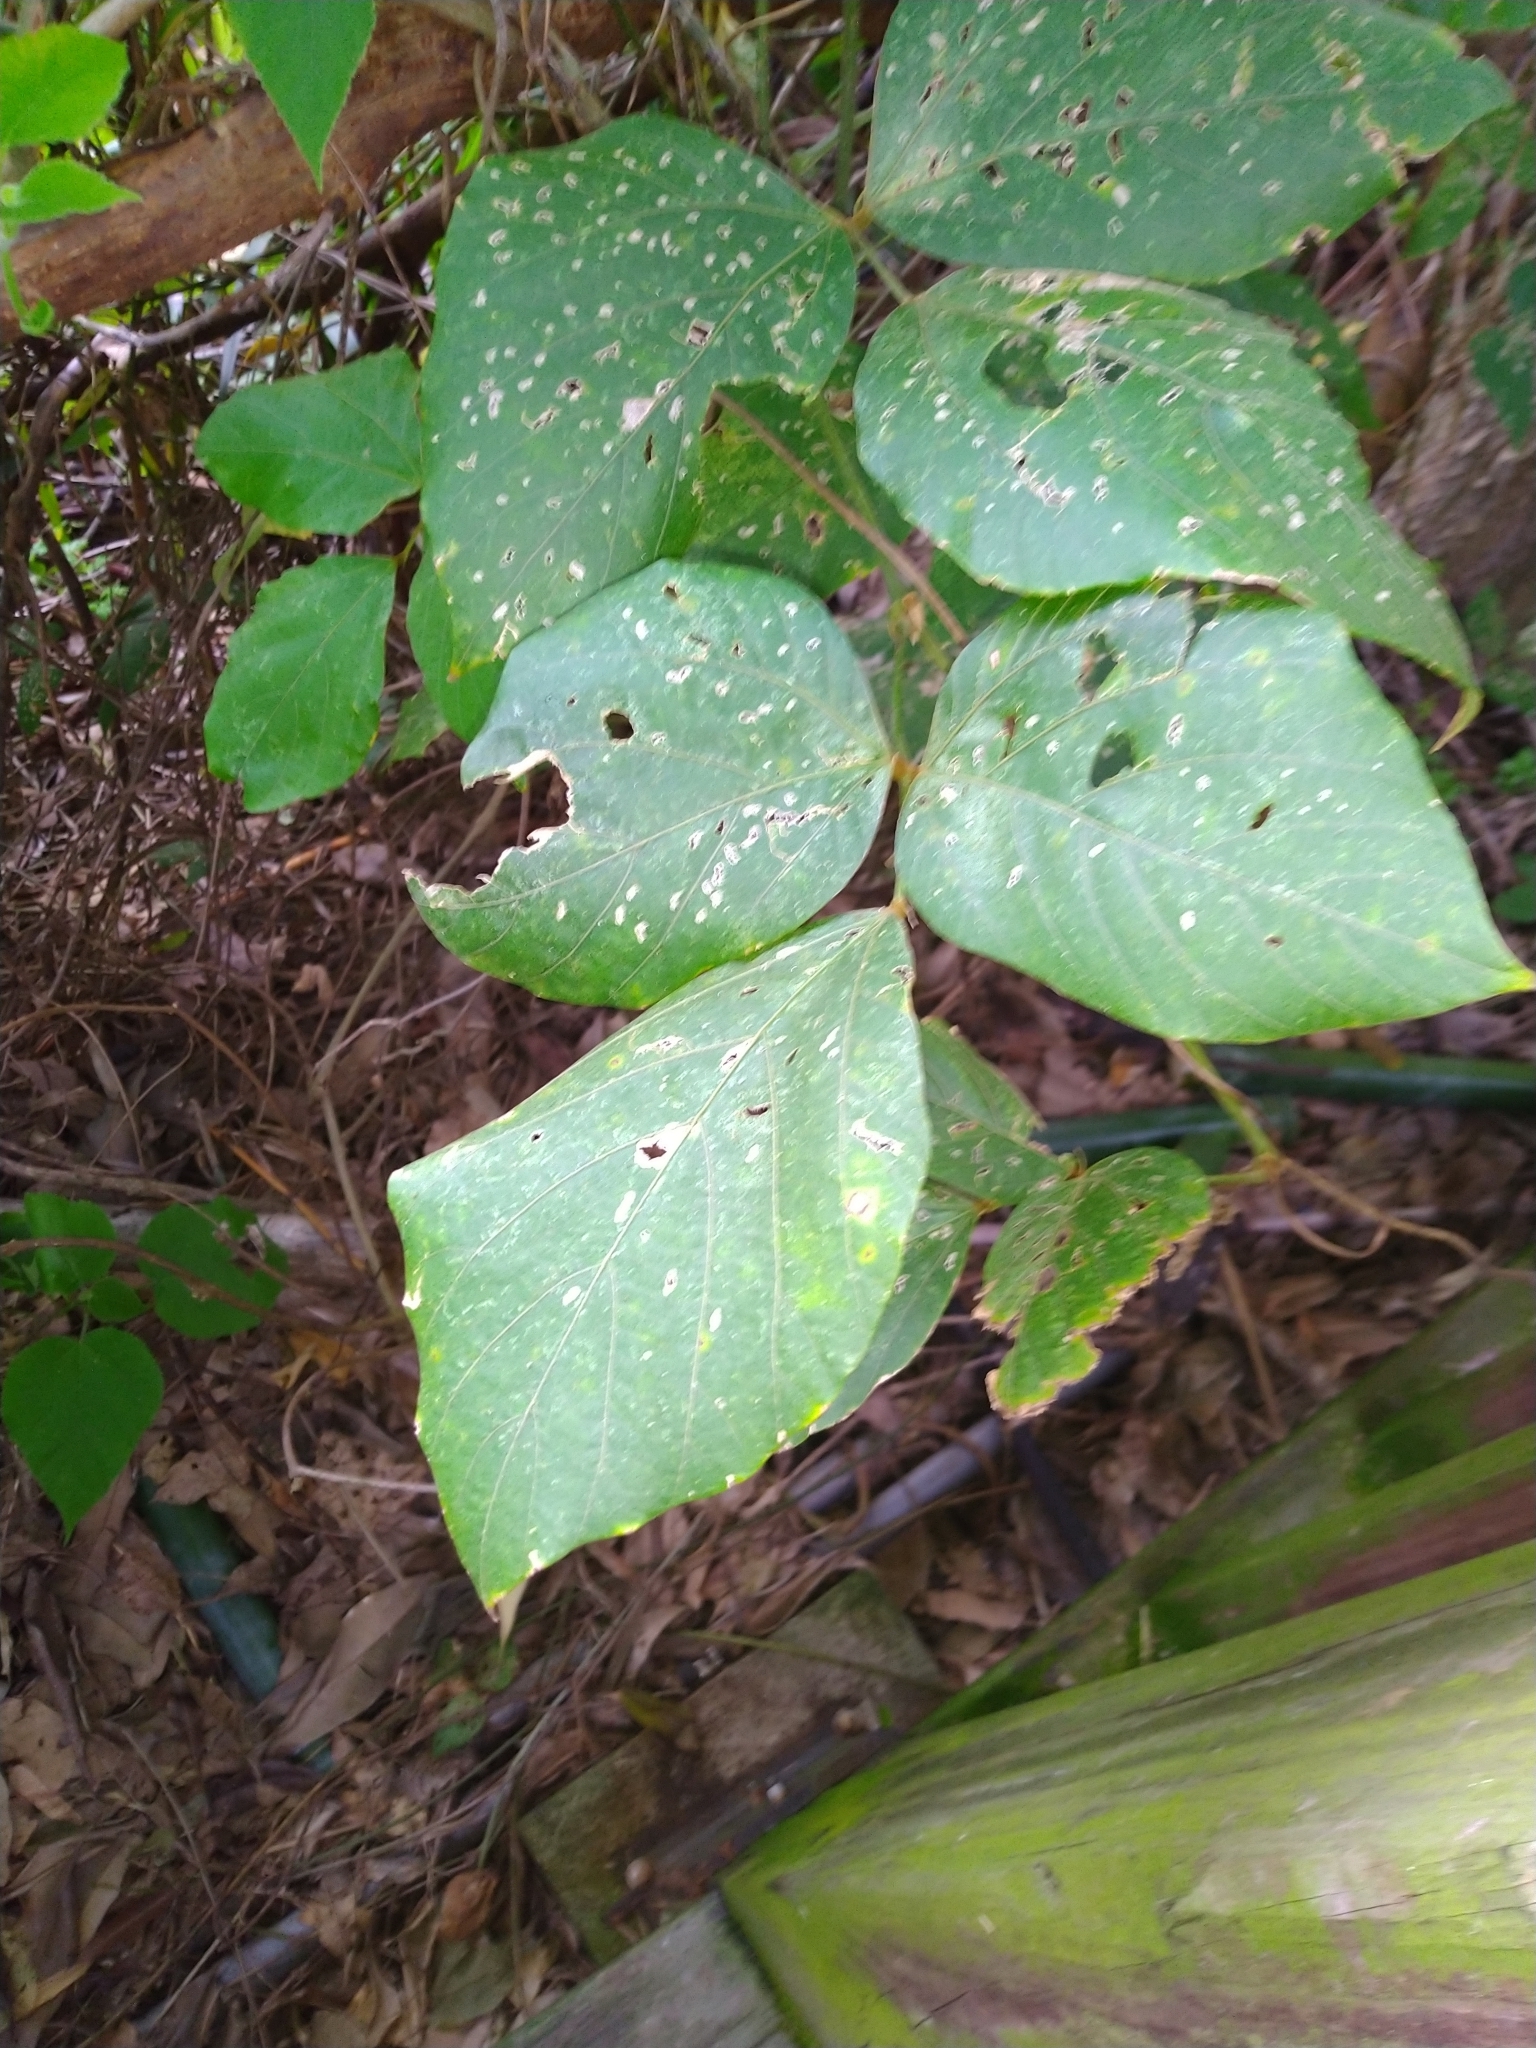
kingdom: Plantae
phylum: Tracheophyta
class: Magnoliopsida
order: Fabales
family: Fabaceae
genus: Pueraria
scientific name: Pueraria montana
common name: Kudzu
